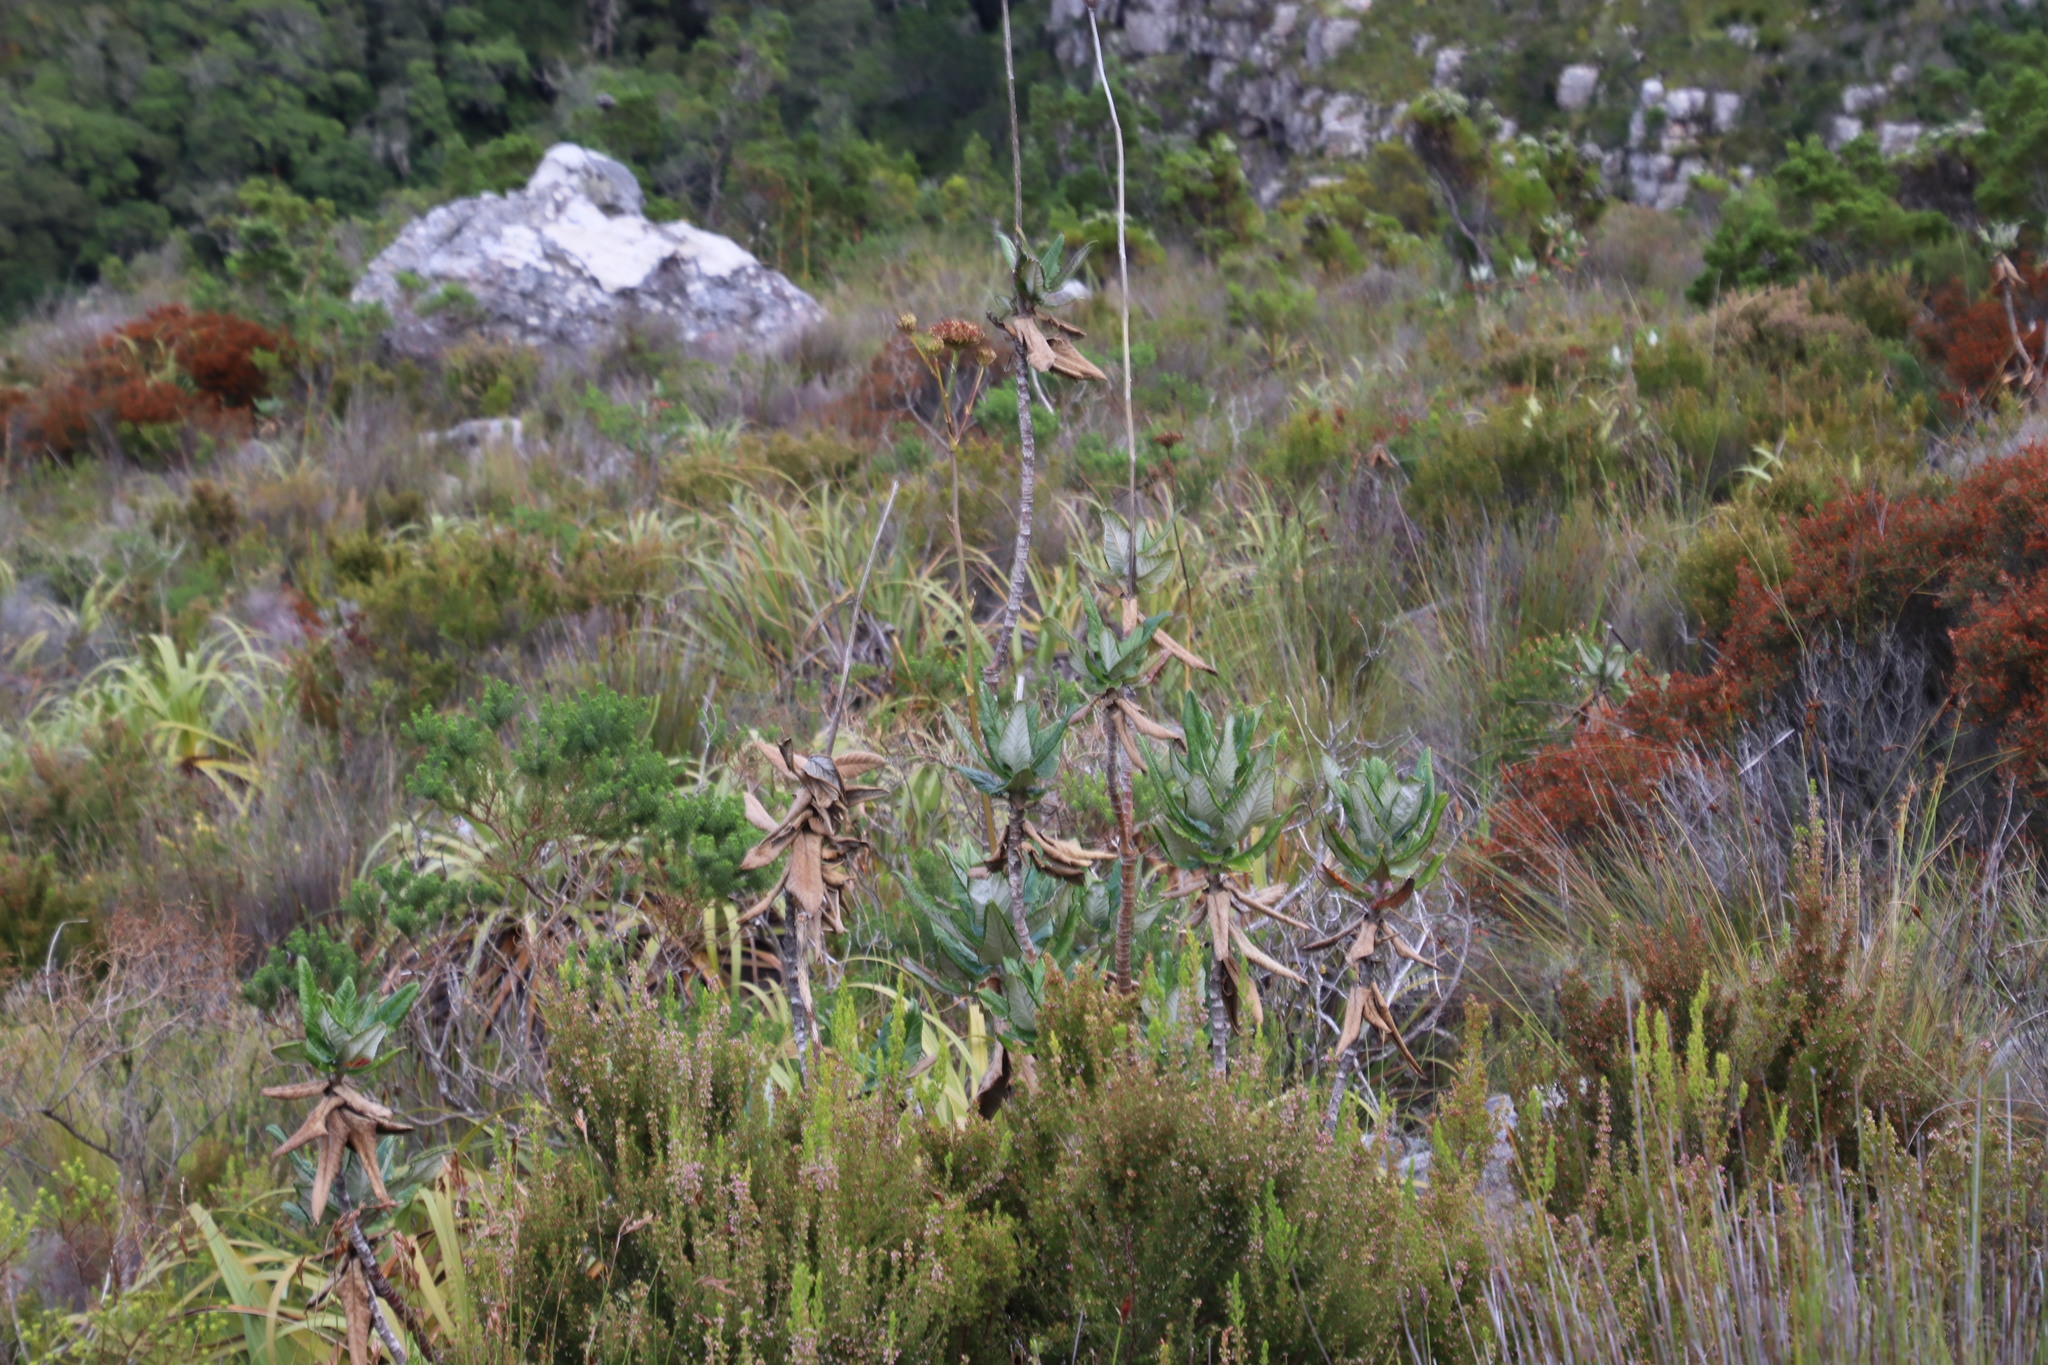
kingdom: Plantae
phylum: Tracheophyta
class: Magnoliopsida
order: Apiales
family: Apiaceae
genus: Hermas
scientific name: Hermas villosa
